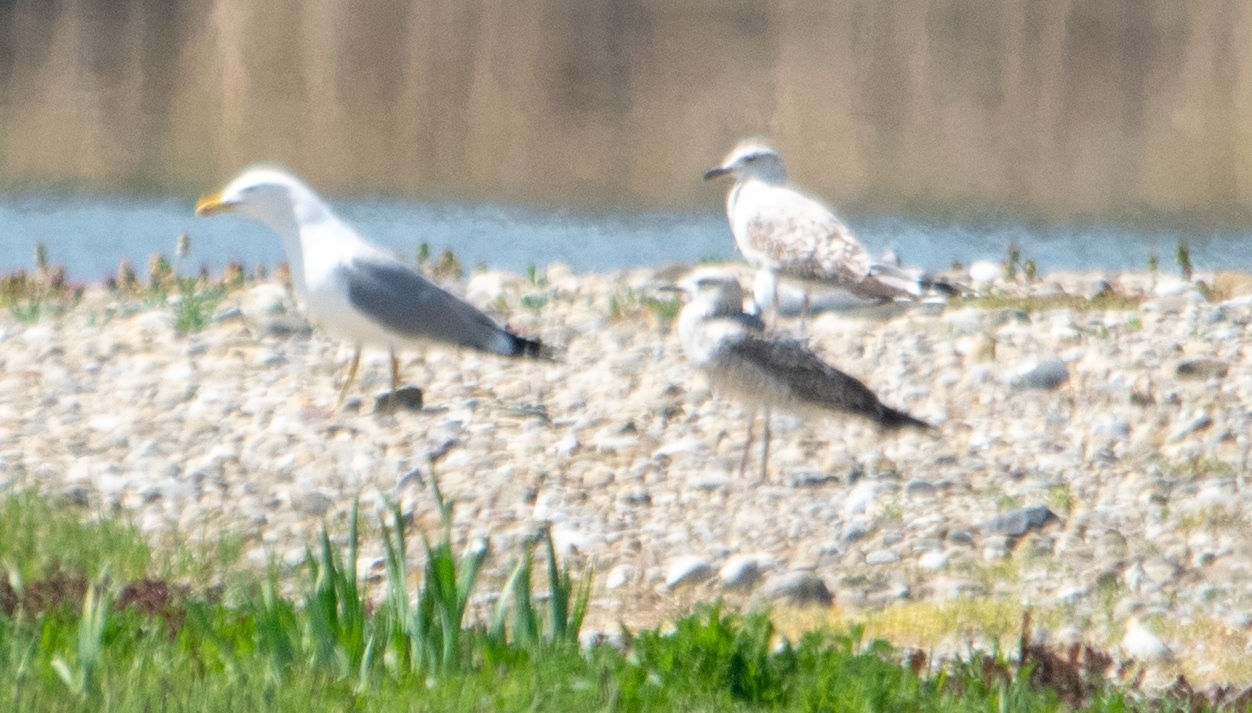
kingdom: Animalia
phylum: Chordata
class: Aves
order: Charadriiformes
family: Laridae
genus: Larus
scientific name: Larus michahellis
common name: Yellow-legged gull
